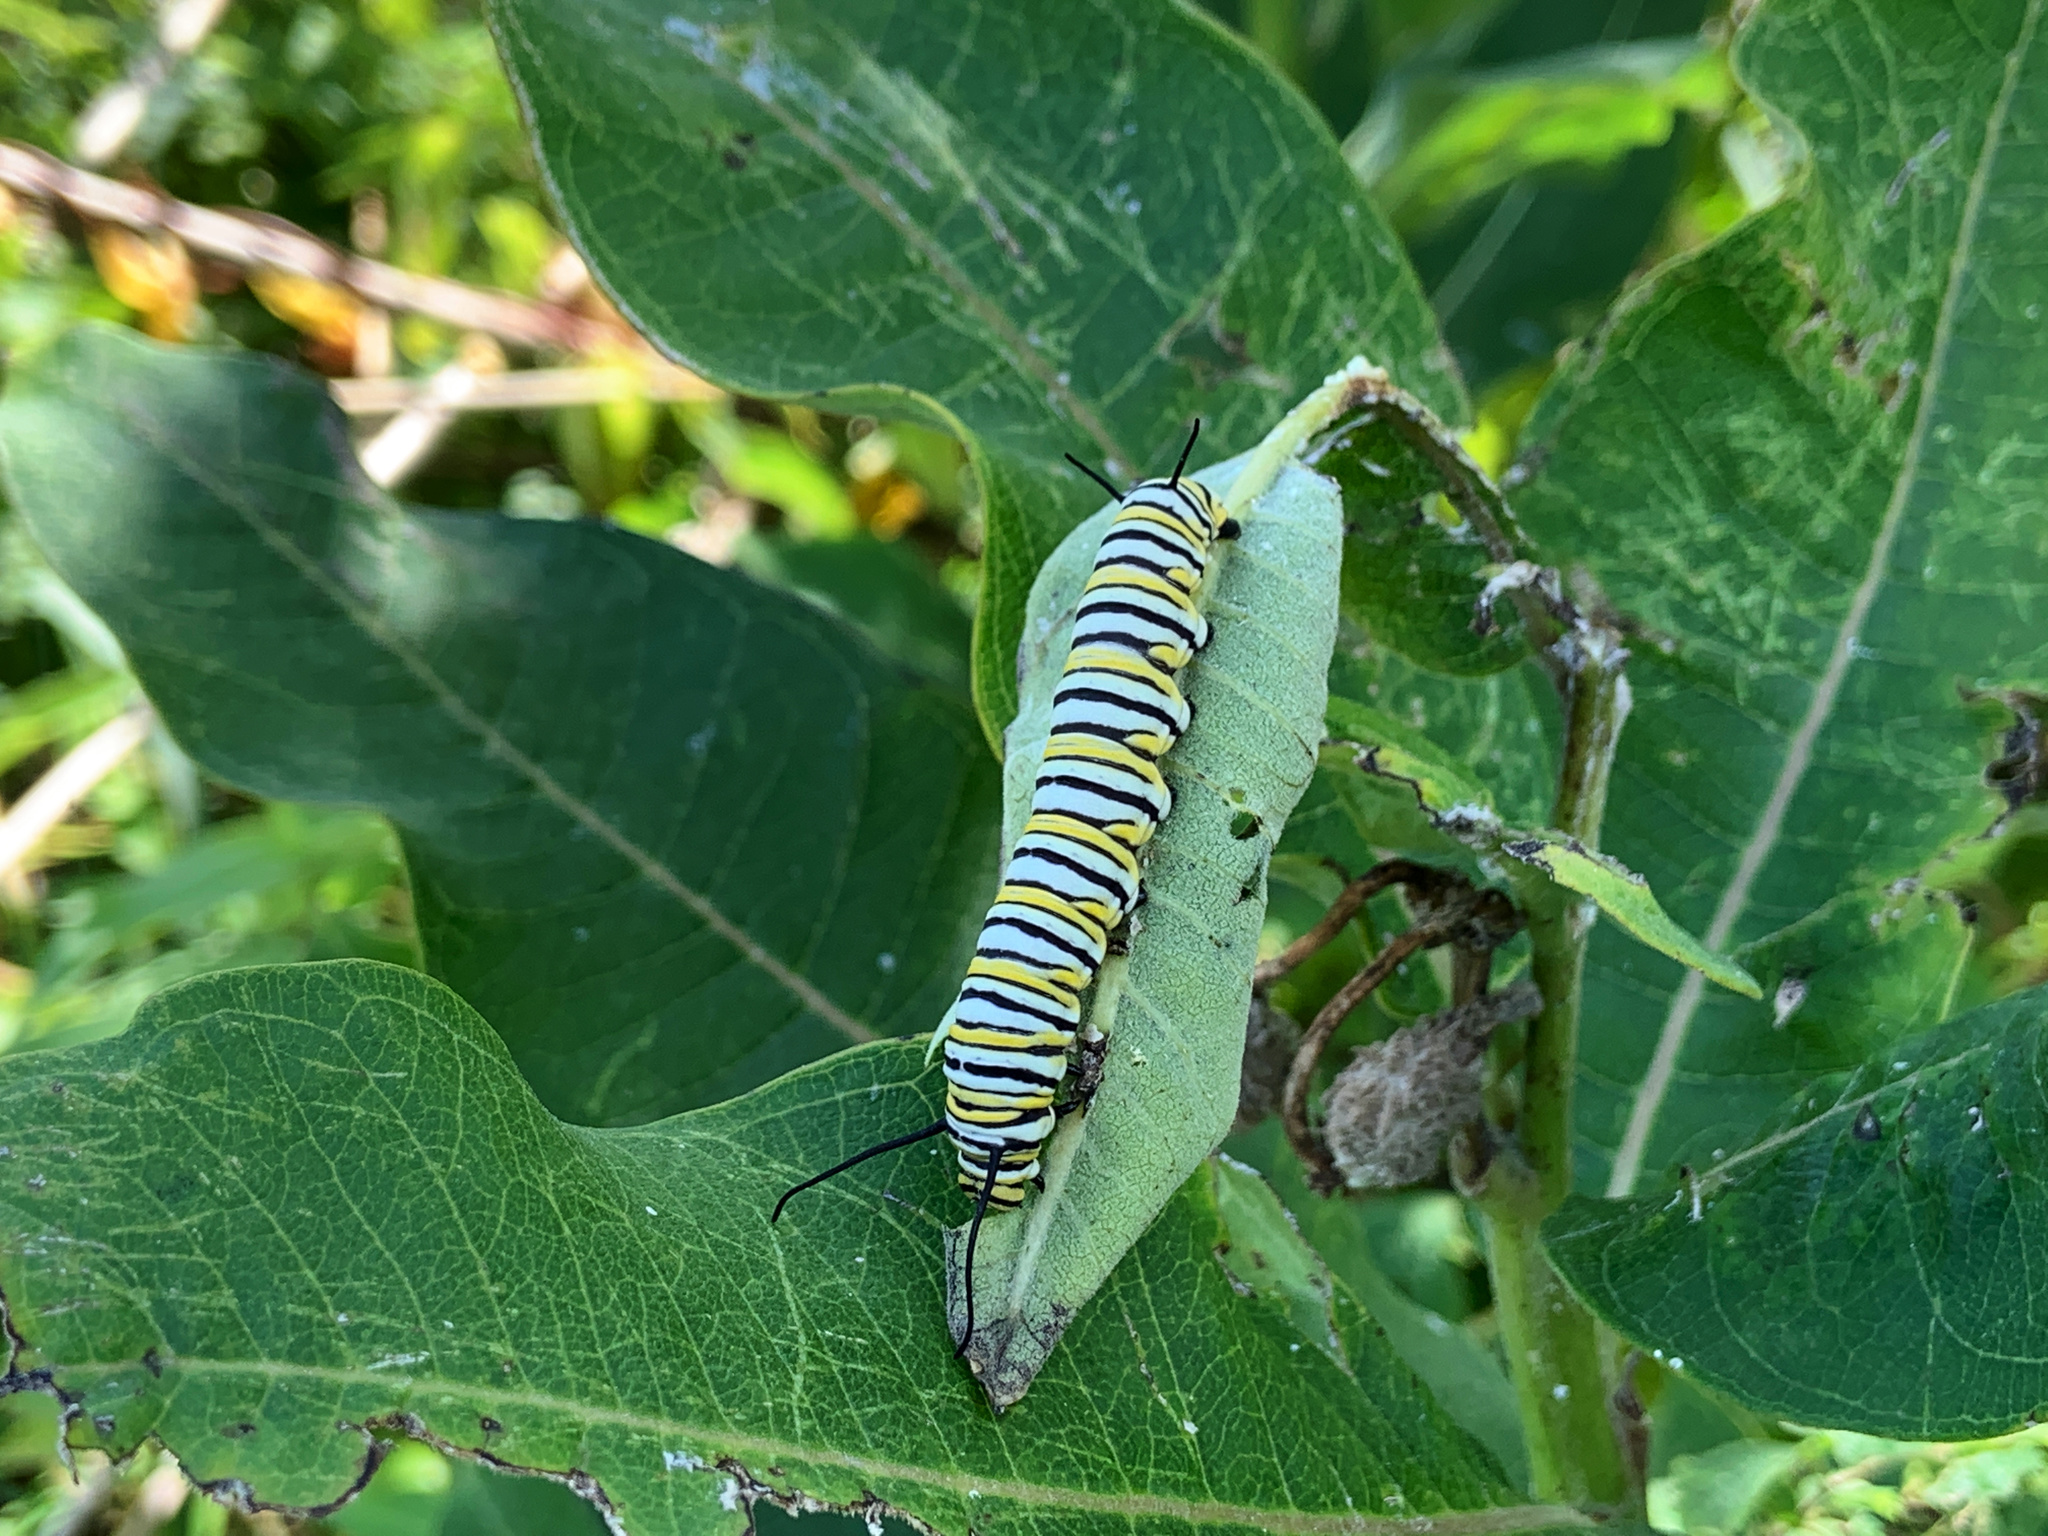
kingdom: Animalia
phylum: Arthropoda
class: Insecta
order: Lepidoptera
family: Nymphalidae
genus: Danaus
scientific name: Danaus plexippus
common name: Monarch
